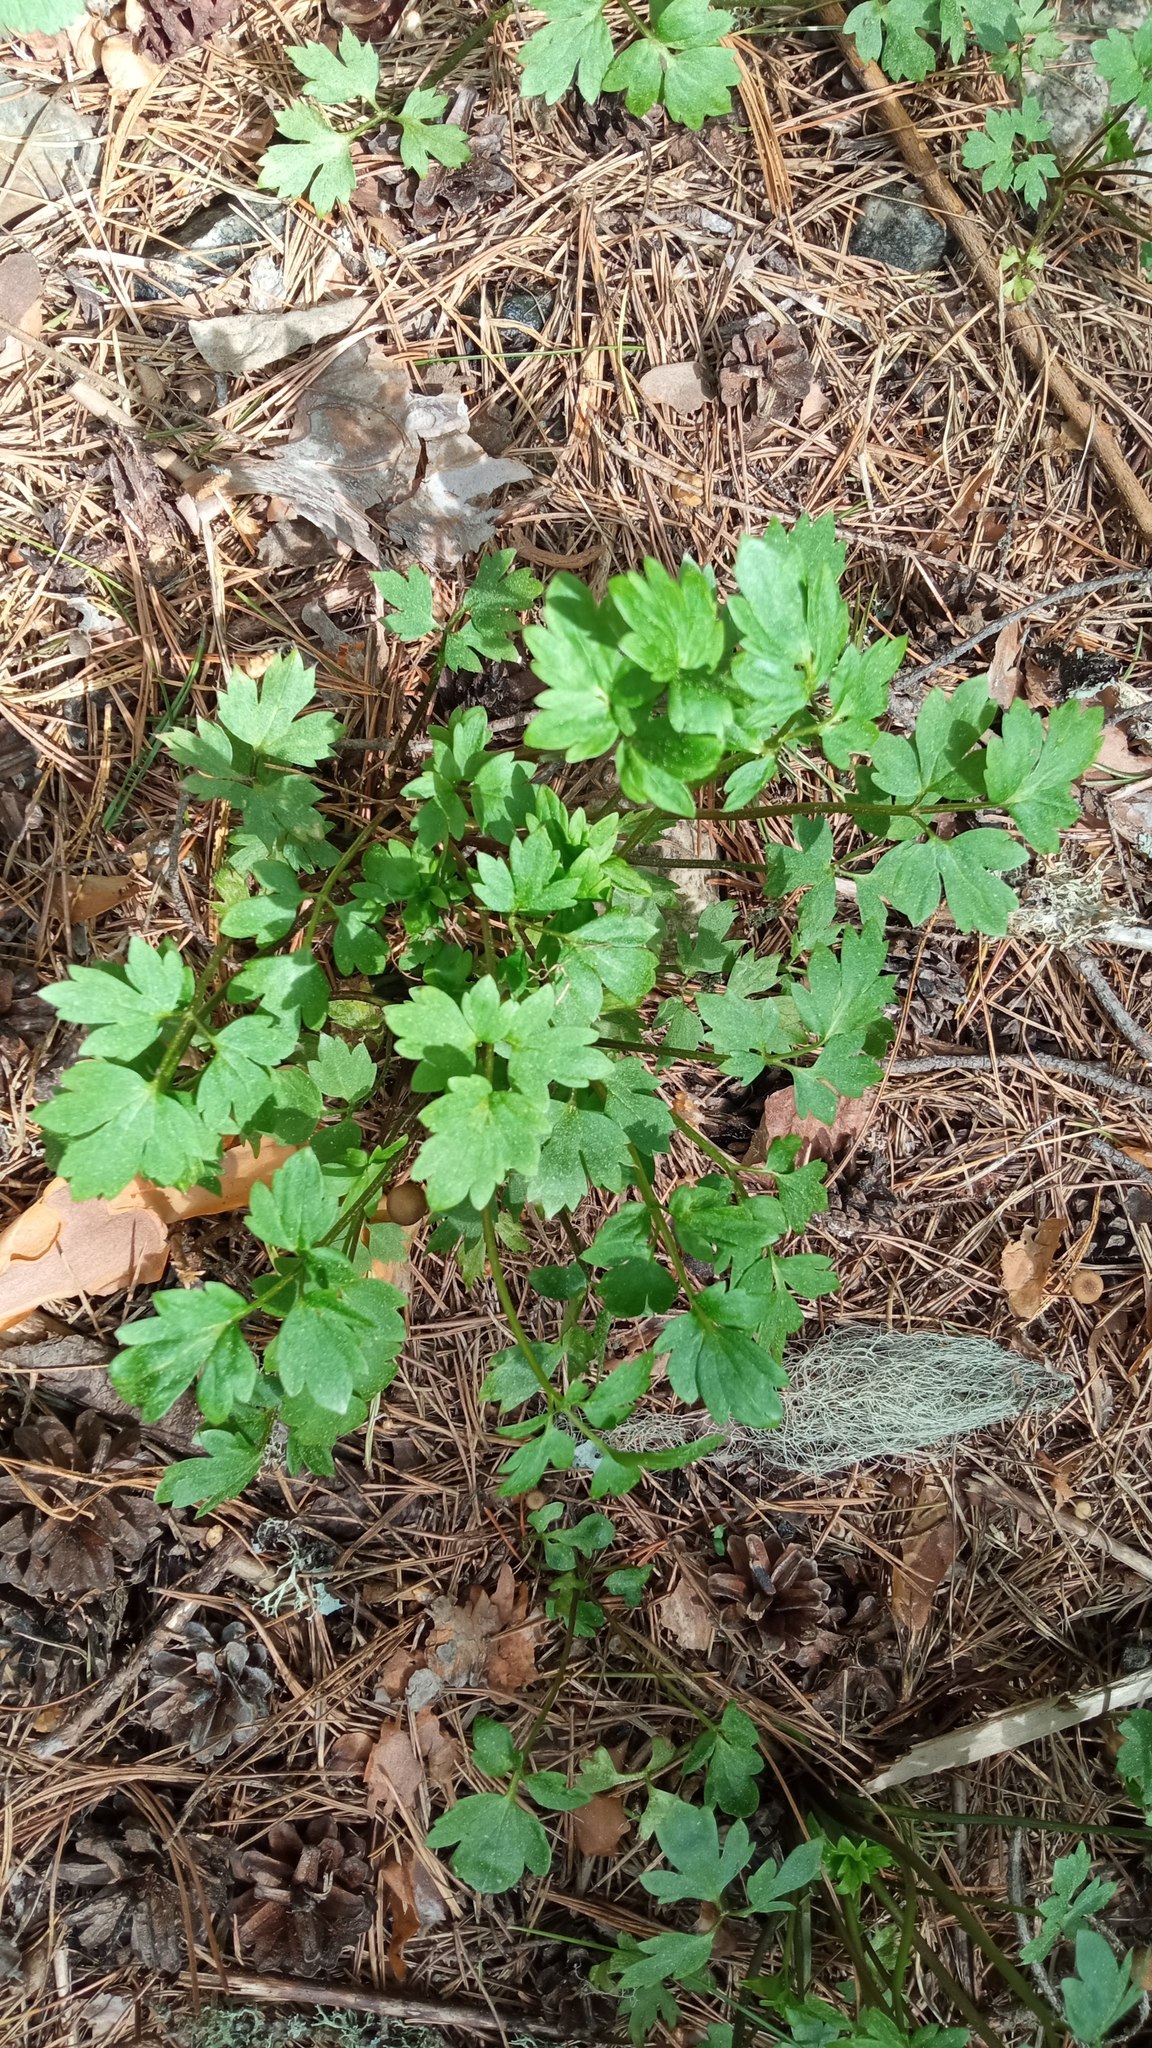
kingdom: Plantae
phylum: Tracheophyta
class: Magnoliopsida
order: Ranunculales
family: Ranunculaceae
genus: Ranunculus
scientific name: Ranunculus repens
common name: Creeping buttercup
